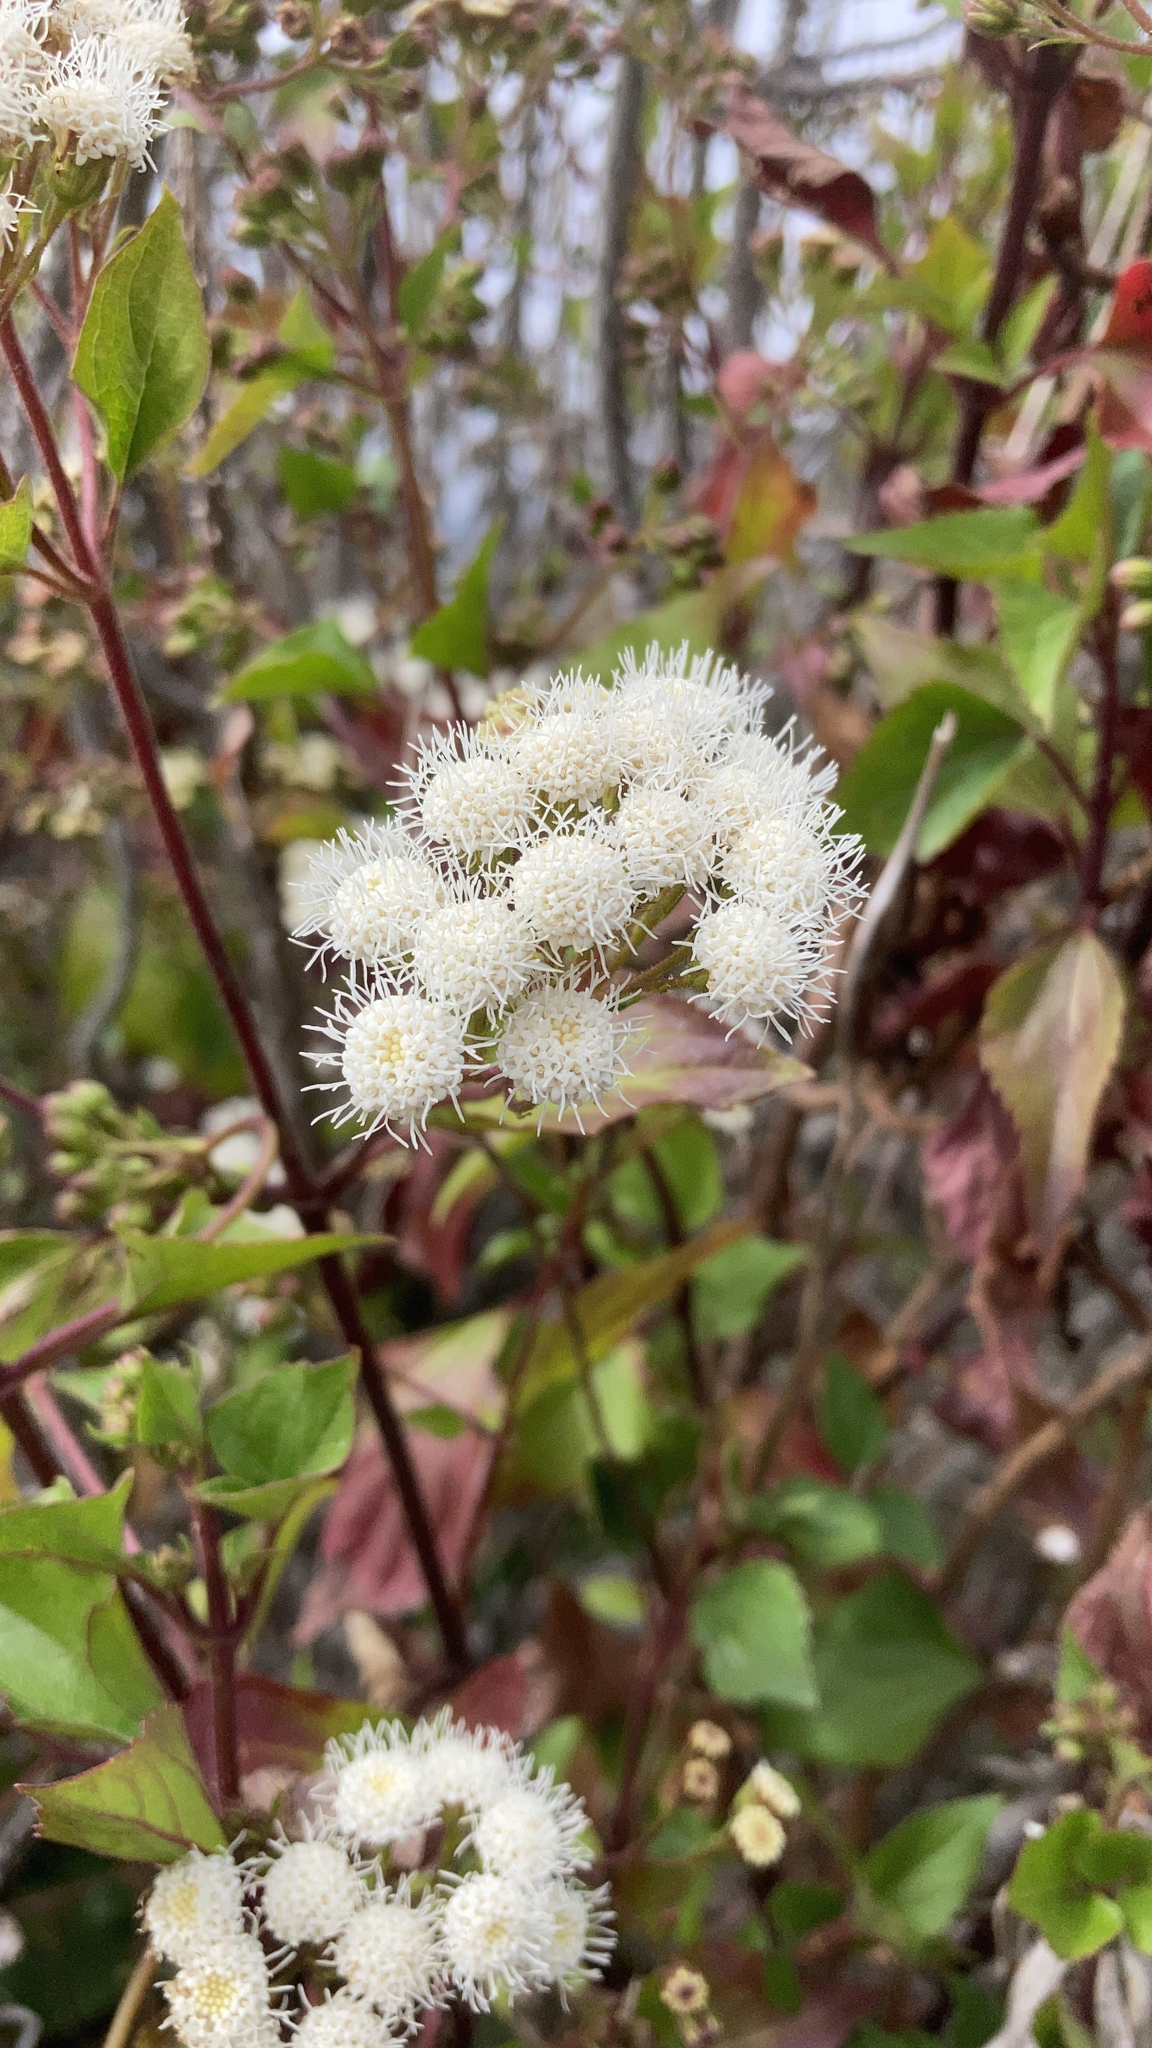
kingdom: Plantae
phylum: Tracheophyta
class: Magnoliopsida
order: Asterales
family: Asteraceae
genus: Ageratina
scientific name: Ageratina adenophora
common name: Sticky snakeroot
